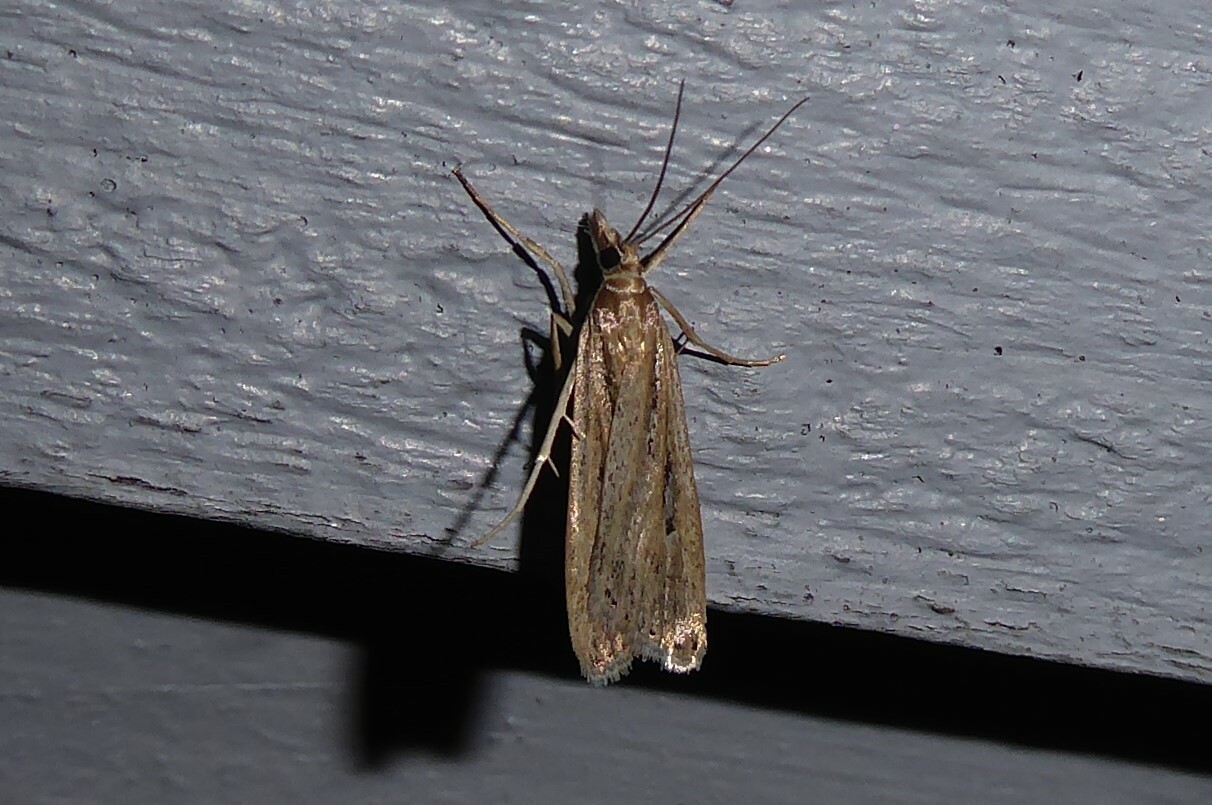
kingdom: Animalia
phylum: Arthropoda
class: Insecta
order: Lepidoptera
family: Crambidae
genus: Eudonia
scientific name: Eudonia sabulosella
